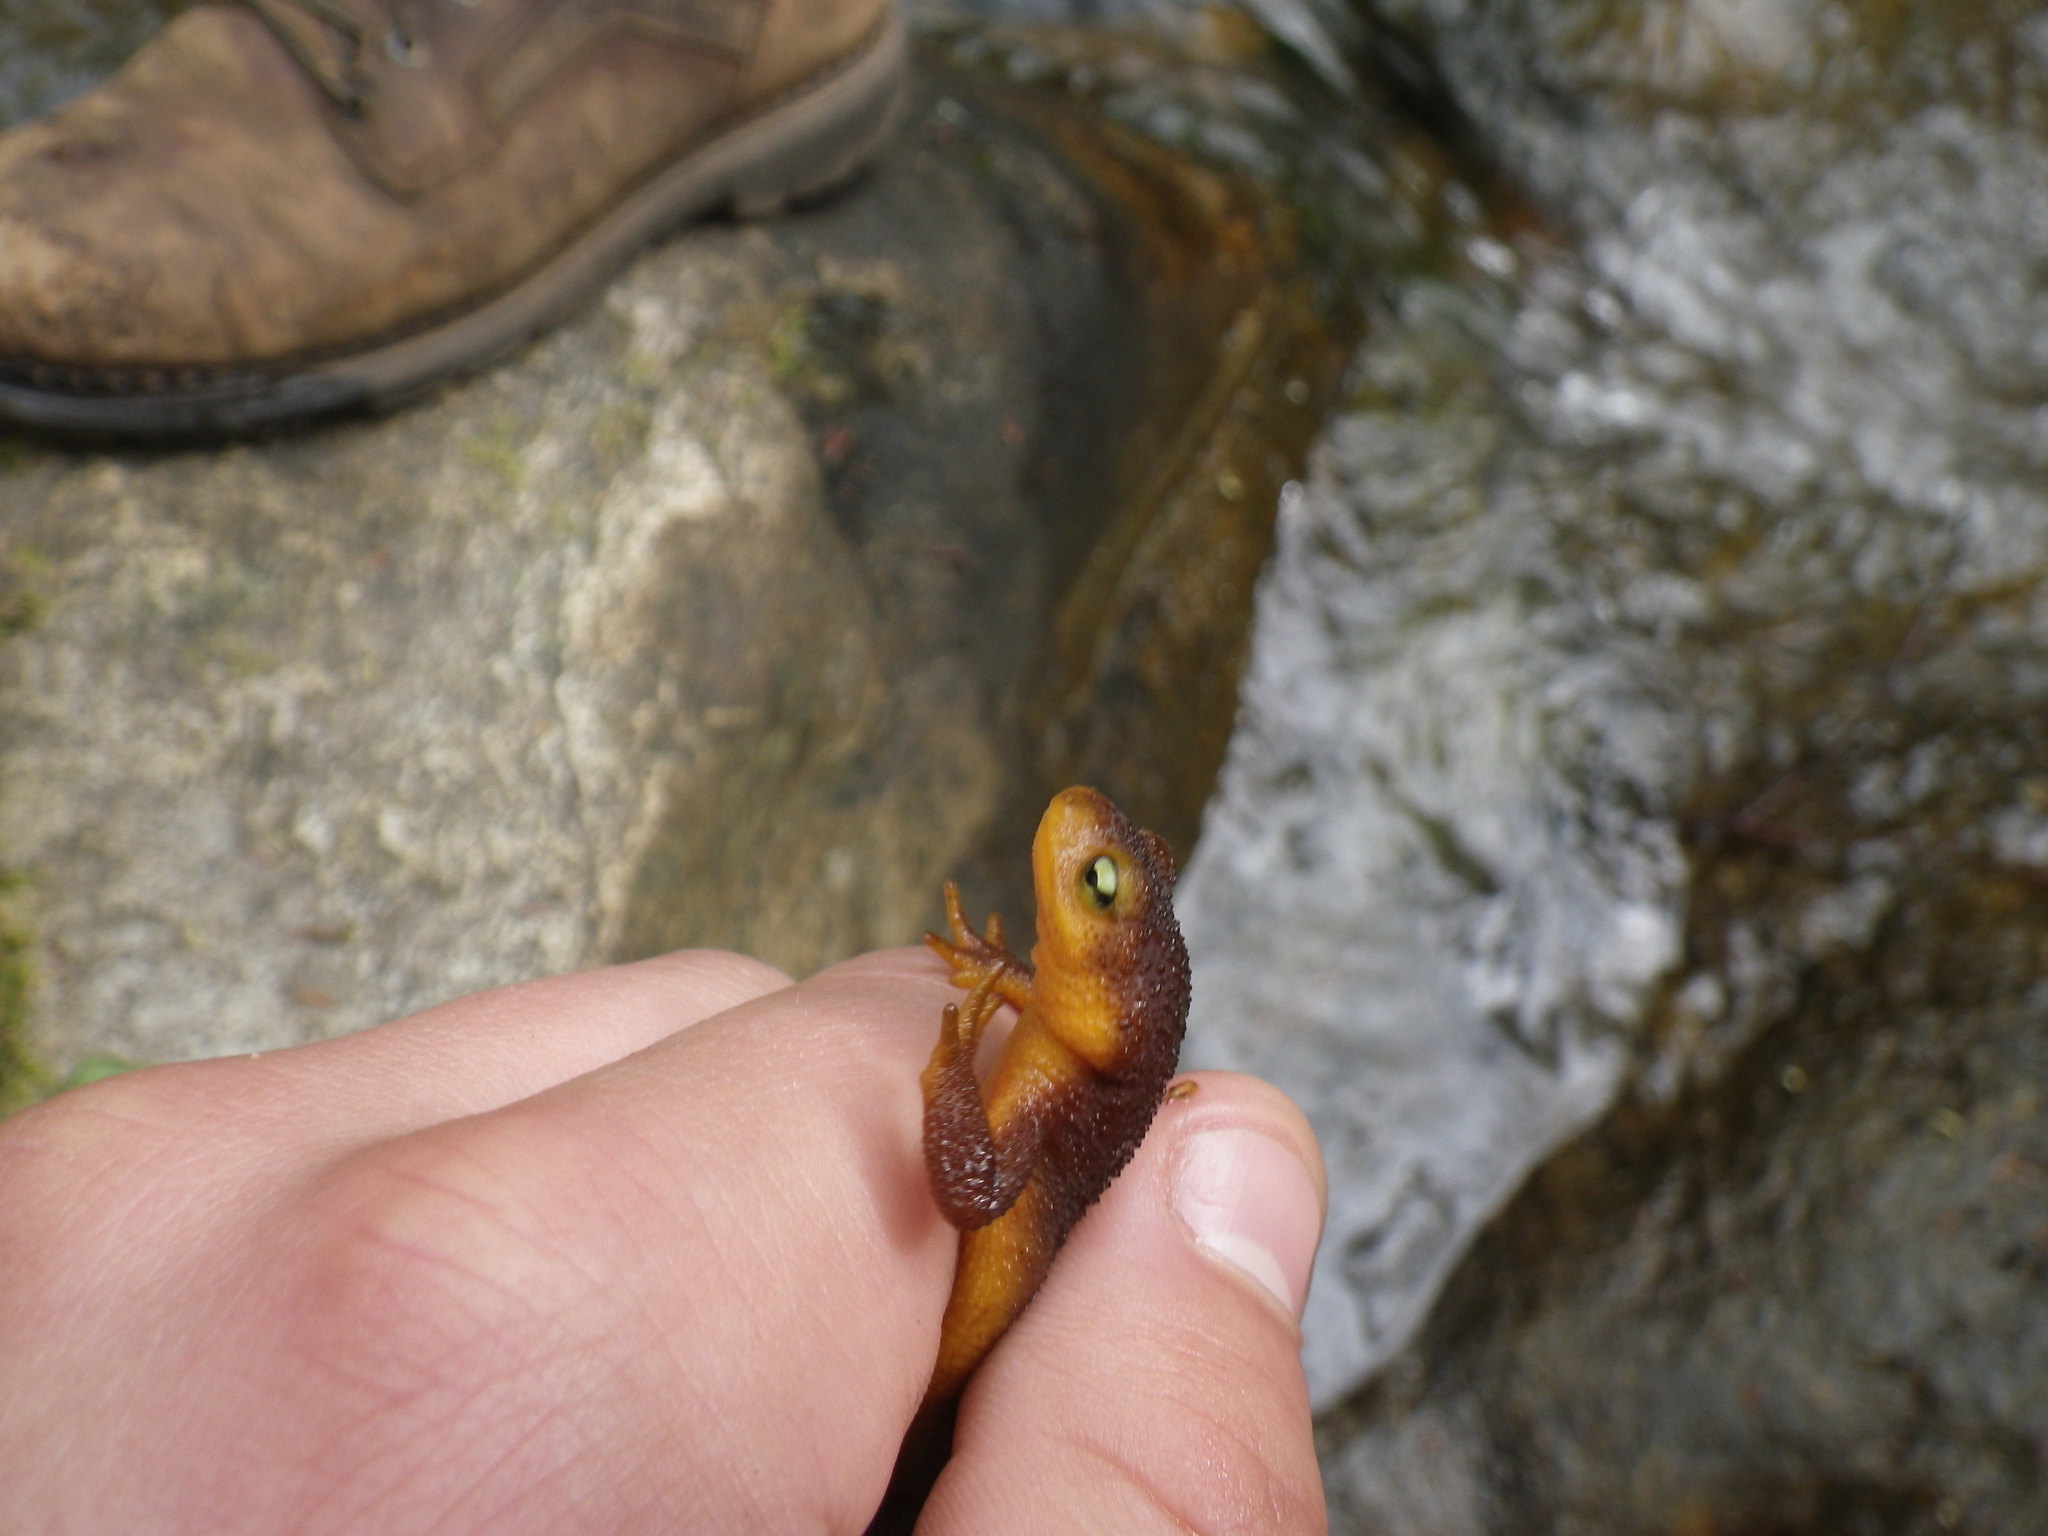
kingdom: Animalia
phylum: Chordata
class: Amphibia
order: Caudata
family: Salamandridae
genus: Taricha
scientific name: Taricha torosa
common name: California newt
